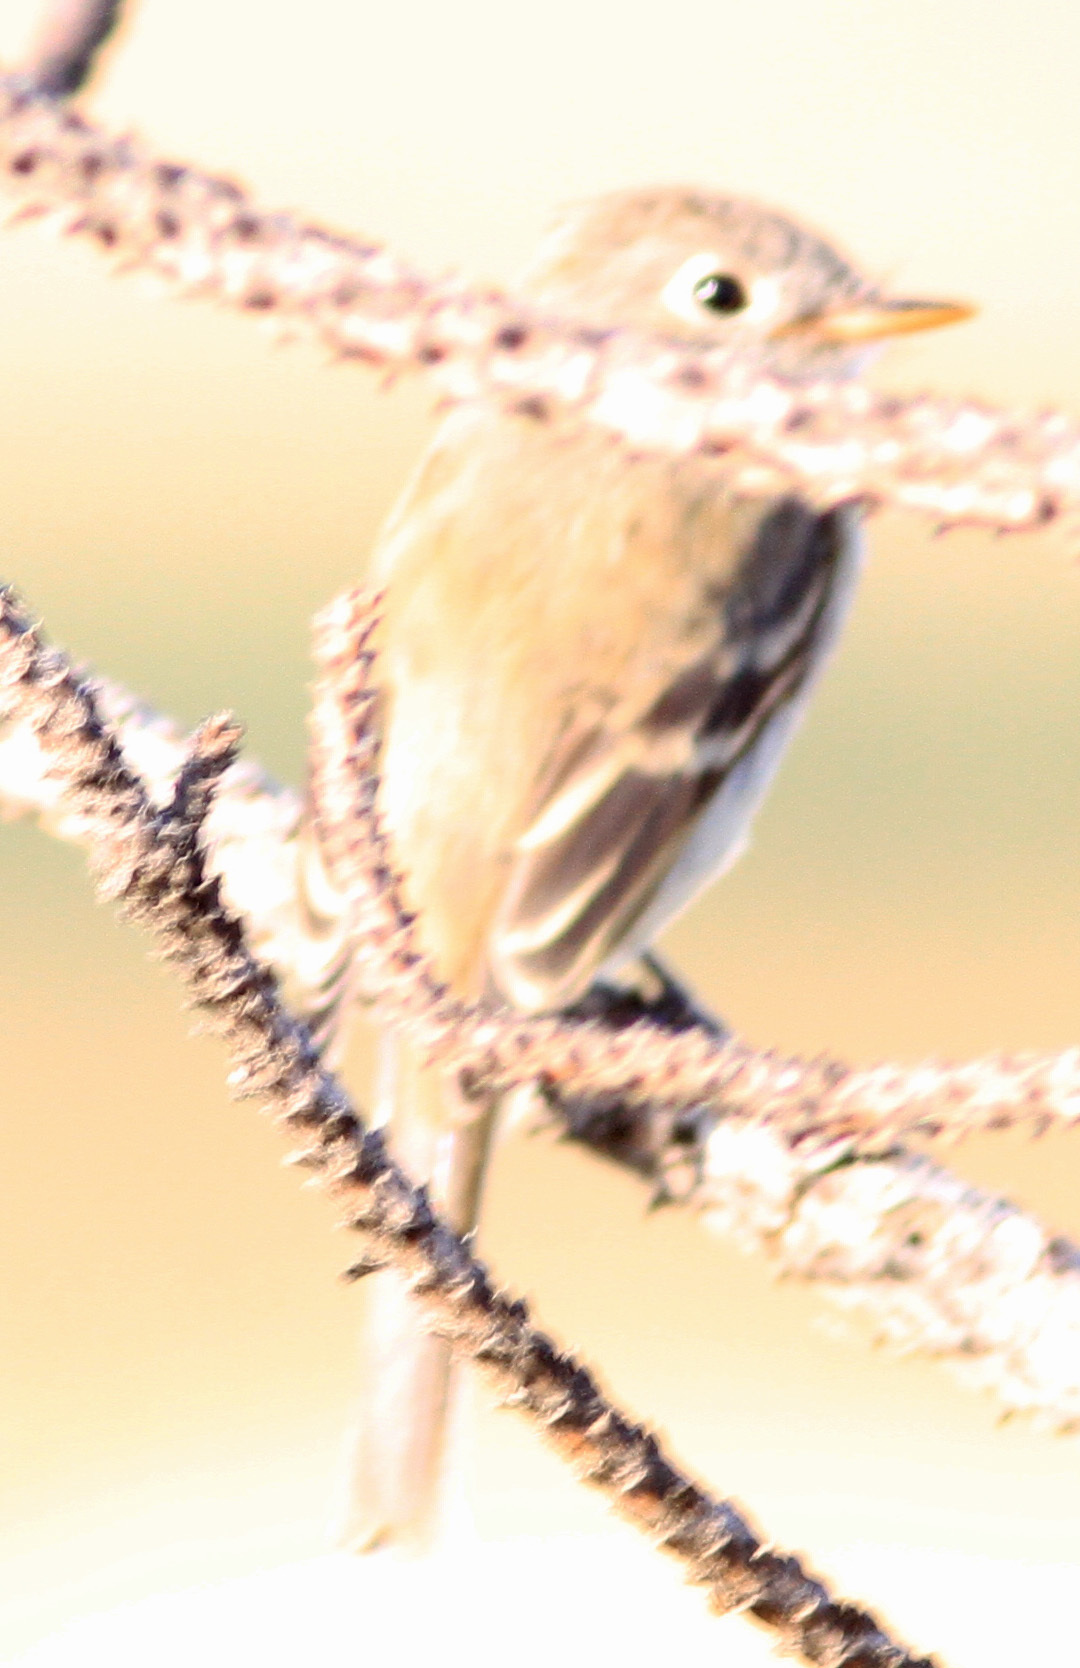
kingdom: Animalia
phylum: Chordata
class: Aves
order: Passeriformes
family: Tyrannidae
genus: Empidonax
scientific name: Empidonax
